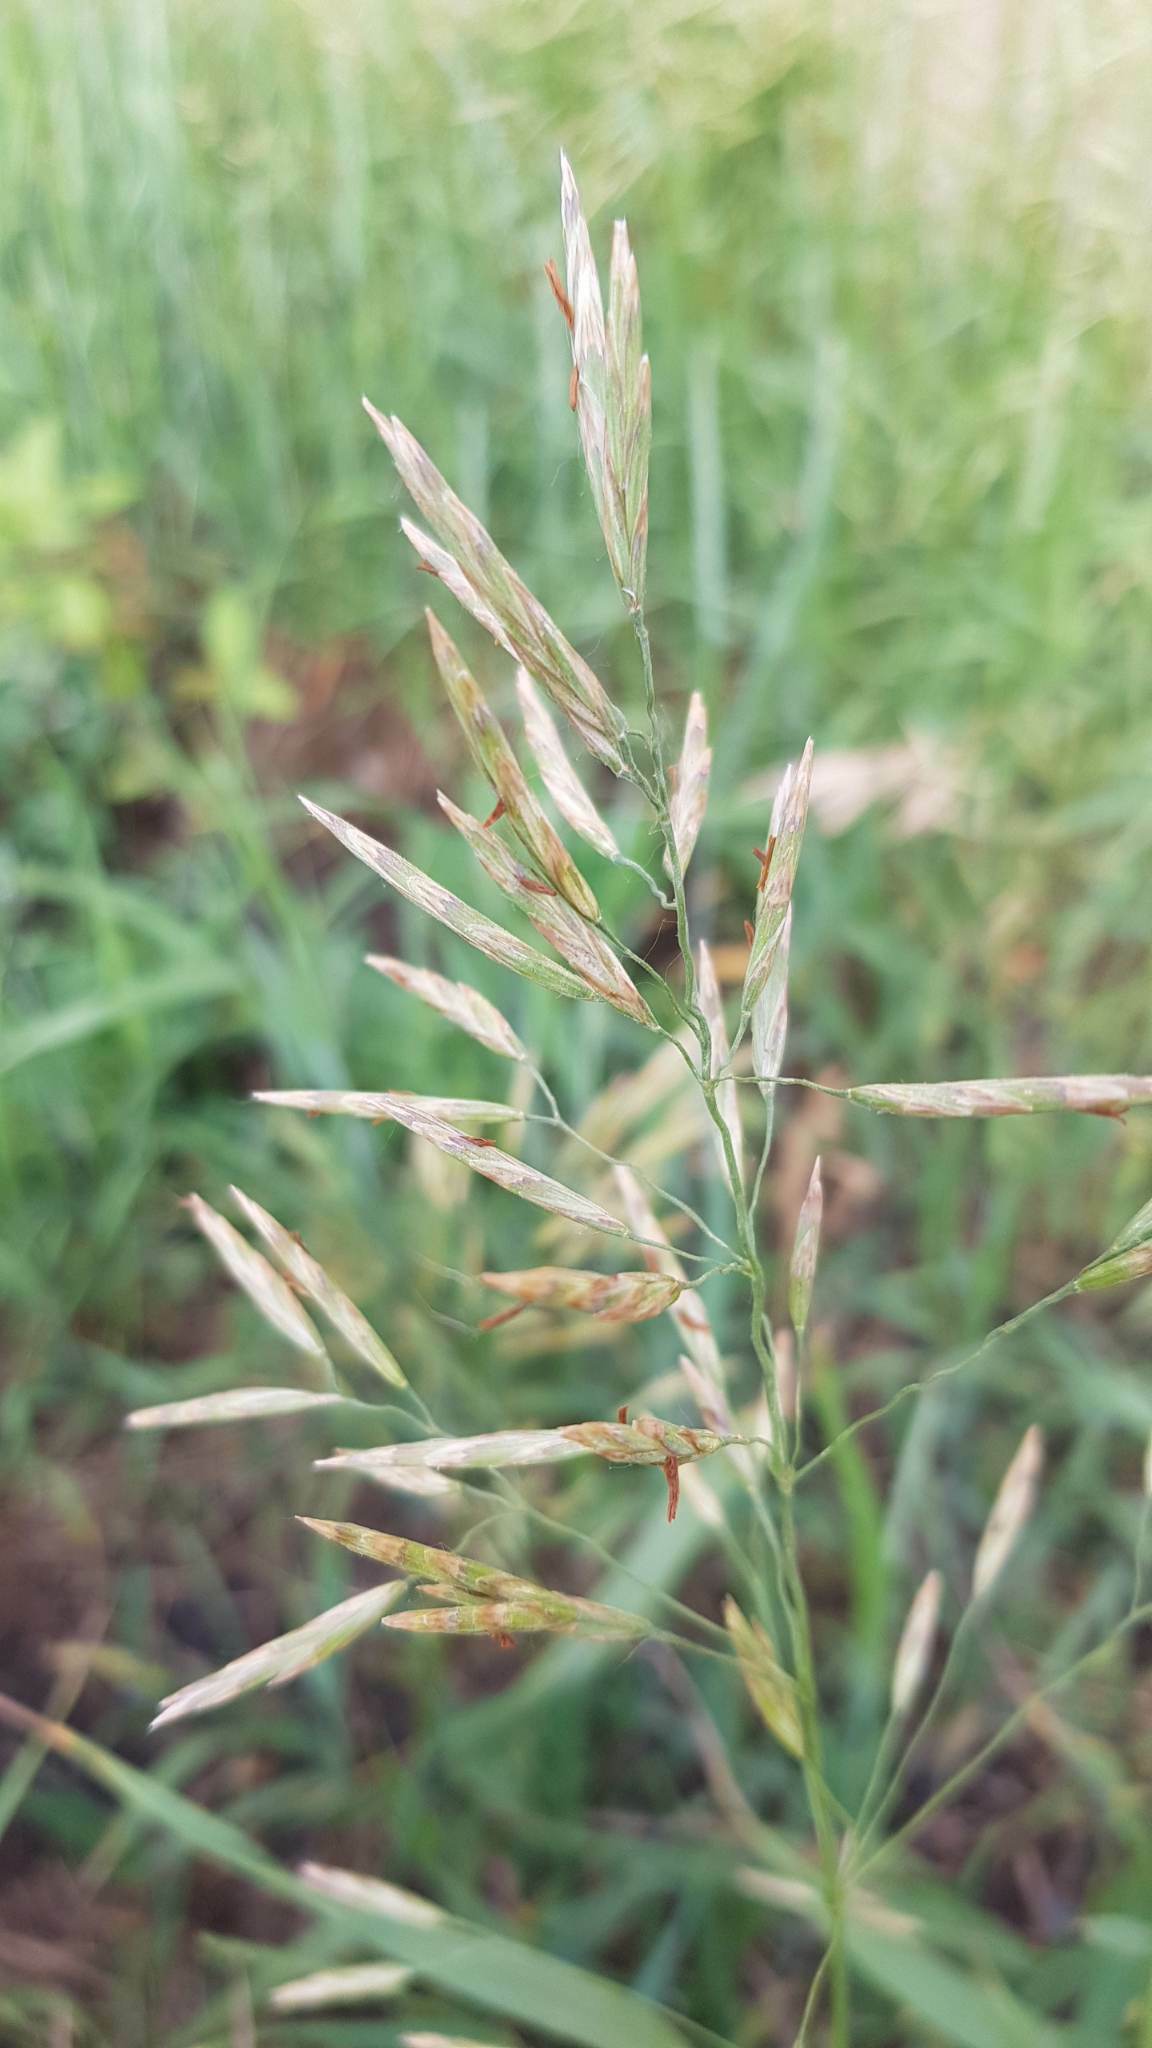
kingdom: Plantae
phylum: Tracheophyta
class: Liliopsida
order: Poales
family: Poaceae
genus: Bromus
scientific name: Bromus inermis
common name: Smooth brome
